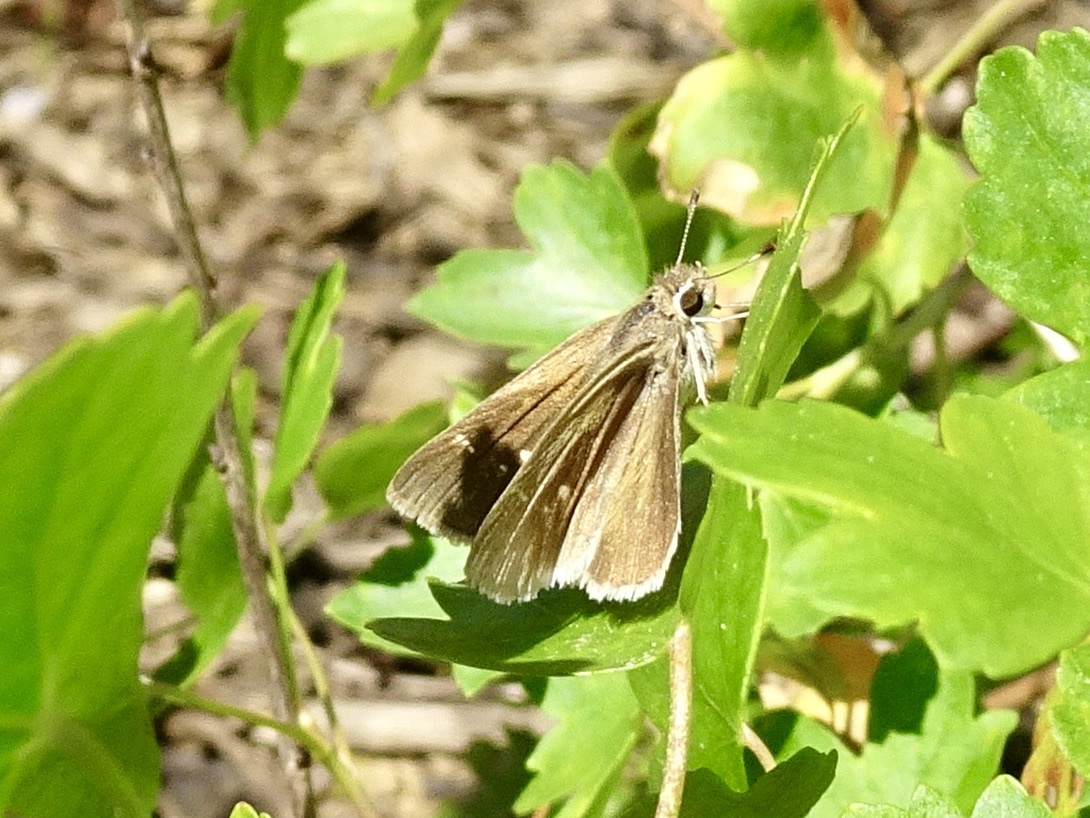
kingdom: Animalia
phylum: Arthropoda
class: Insecta
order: Lepidoptera
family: Hesperiidae
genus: Lerodea
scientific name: Lerodea eufala
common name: Eufala skipper
